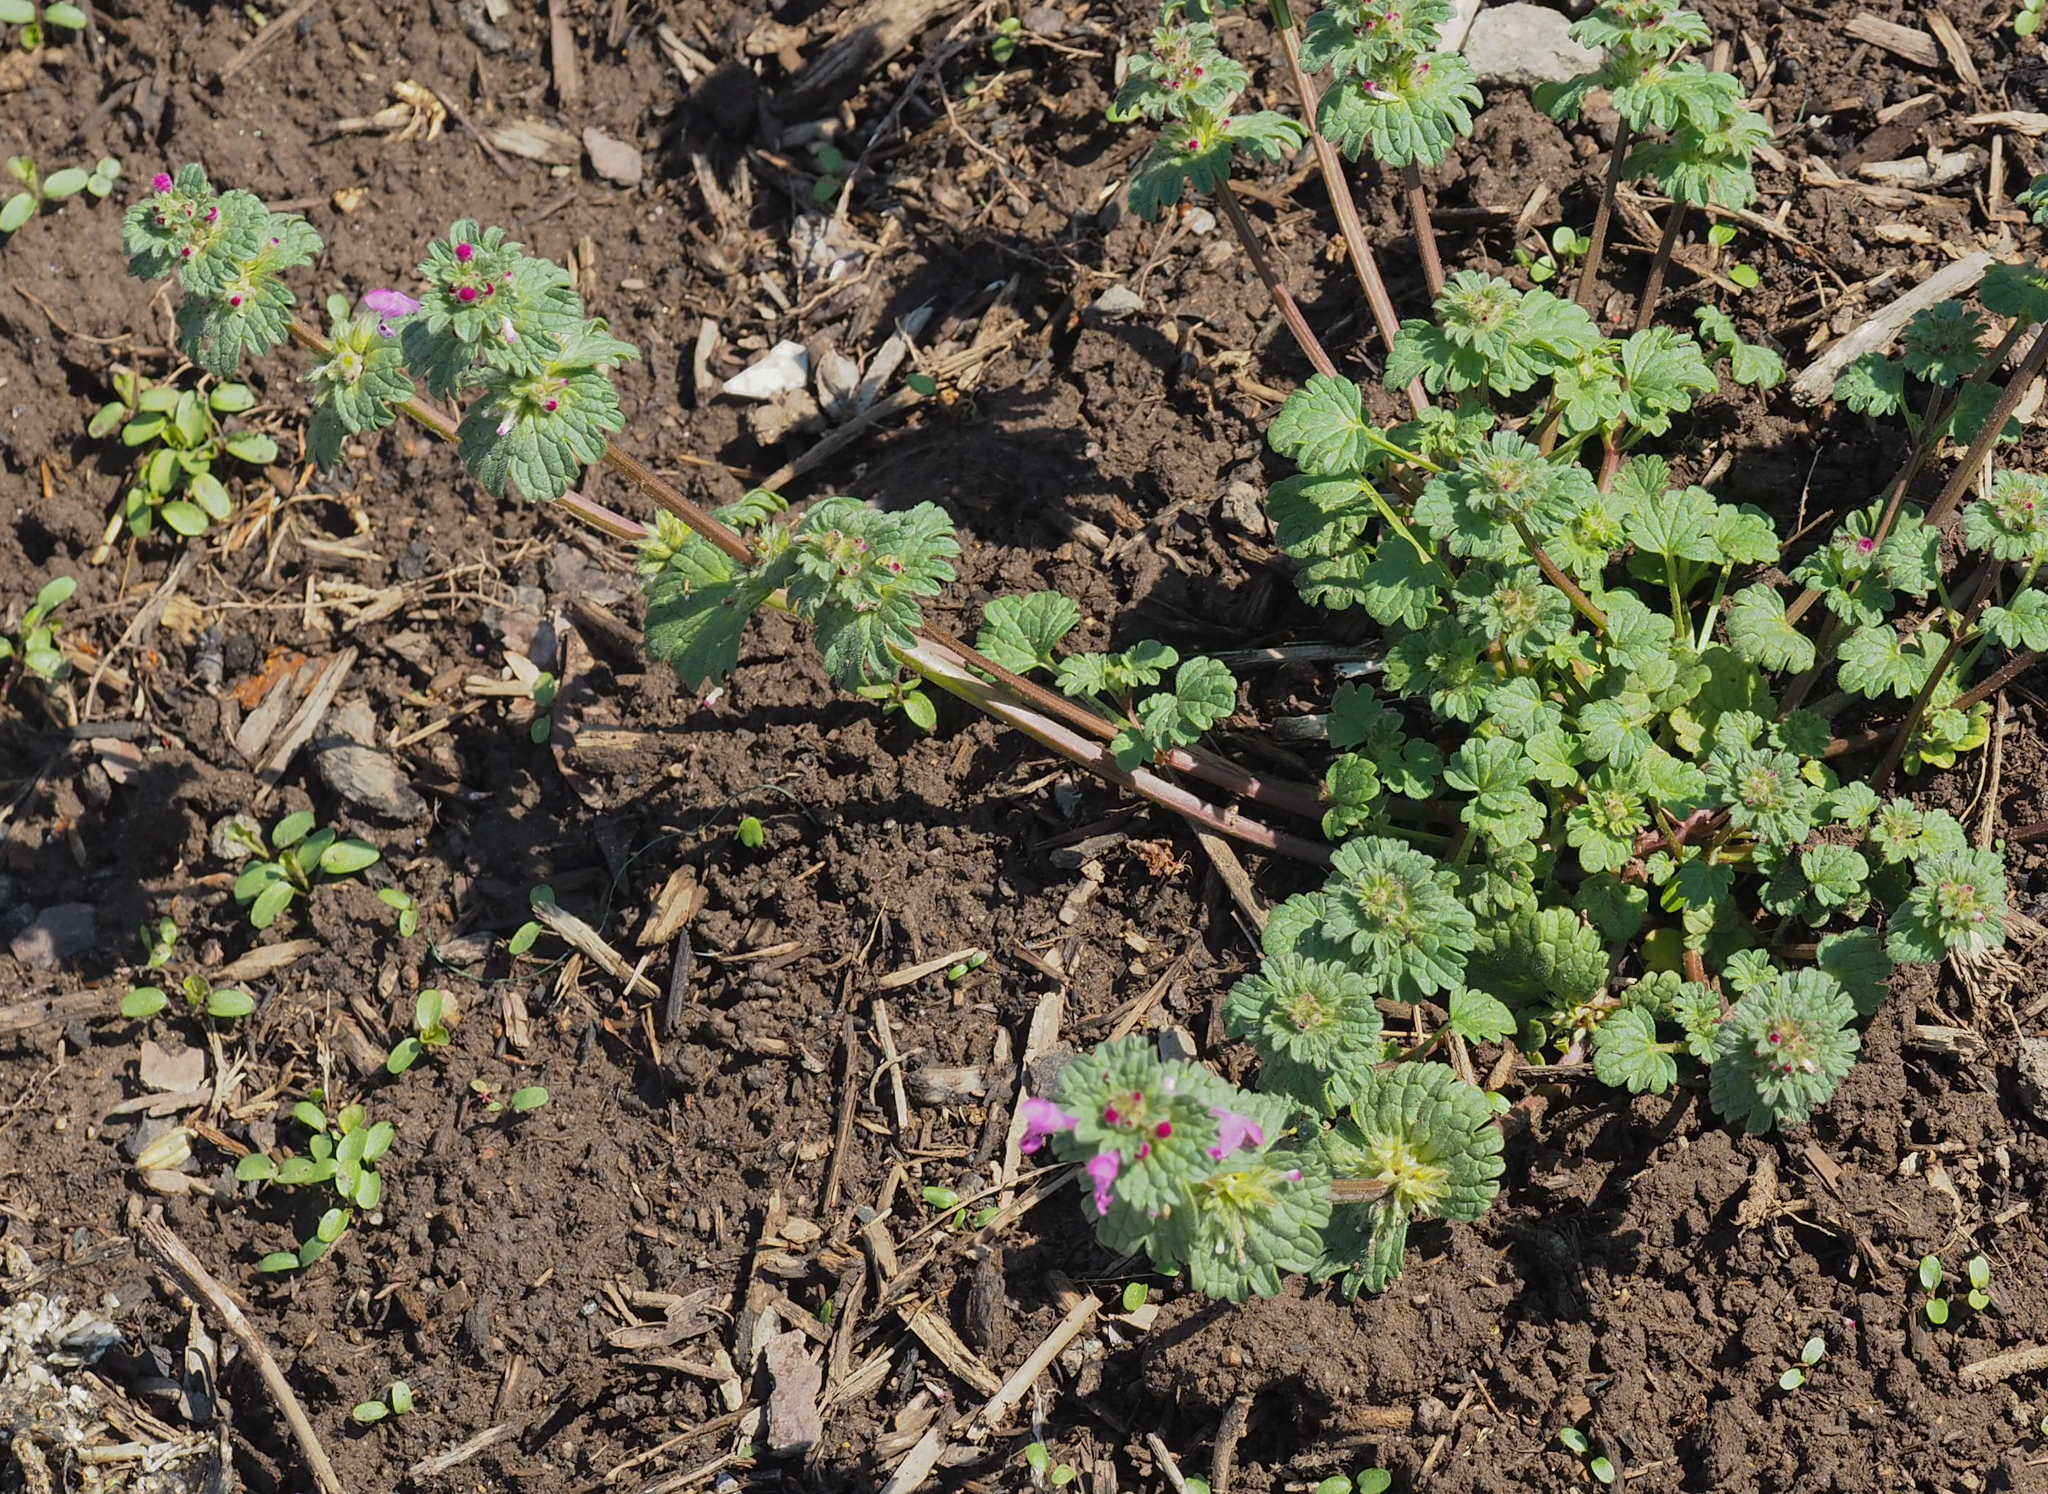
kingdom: Plantae
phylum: Tracheophyta
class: Magnoliopsida
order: Lamiales
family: Lamiaceae
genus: Lamium
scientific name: Lamium amplexicaule
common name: Henbit dead-nettle
